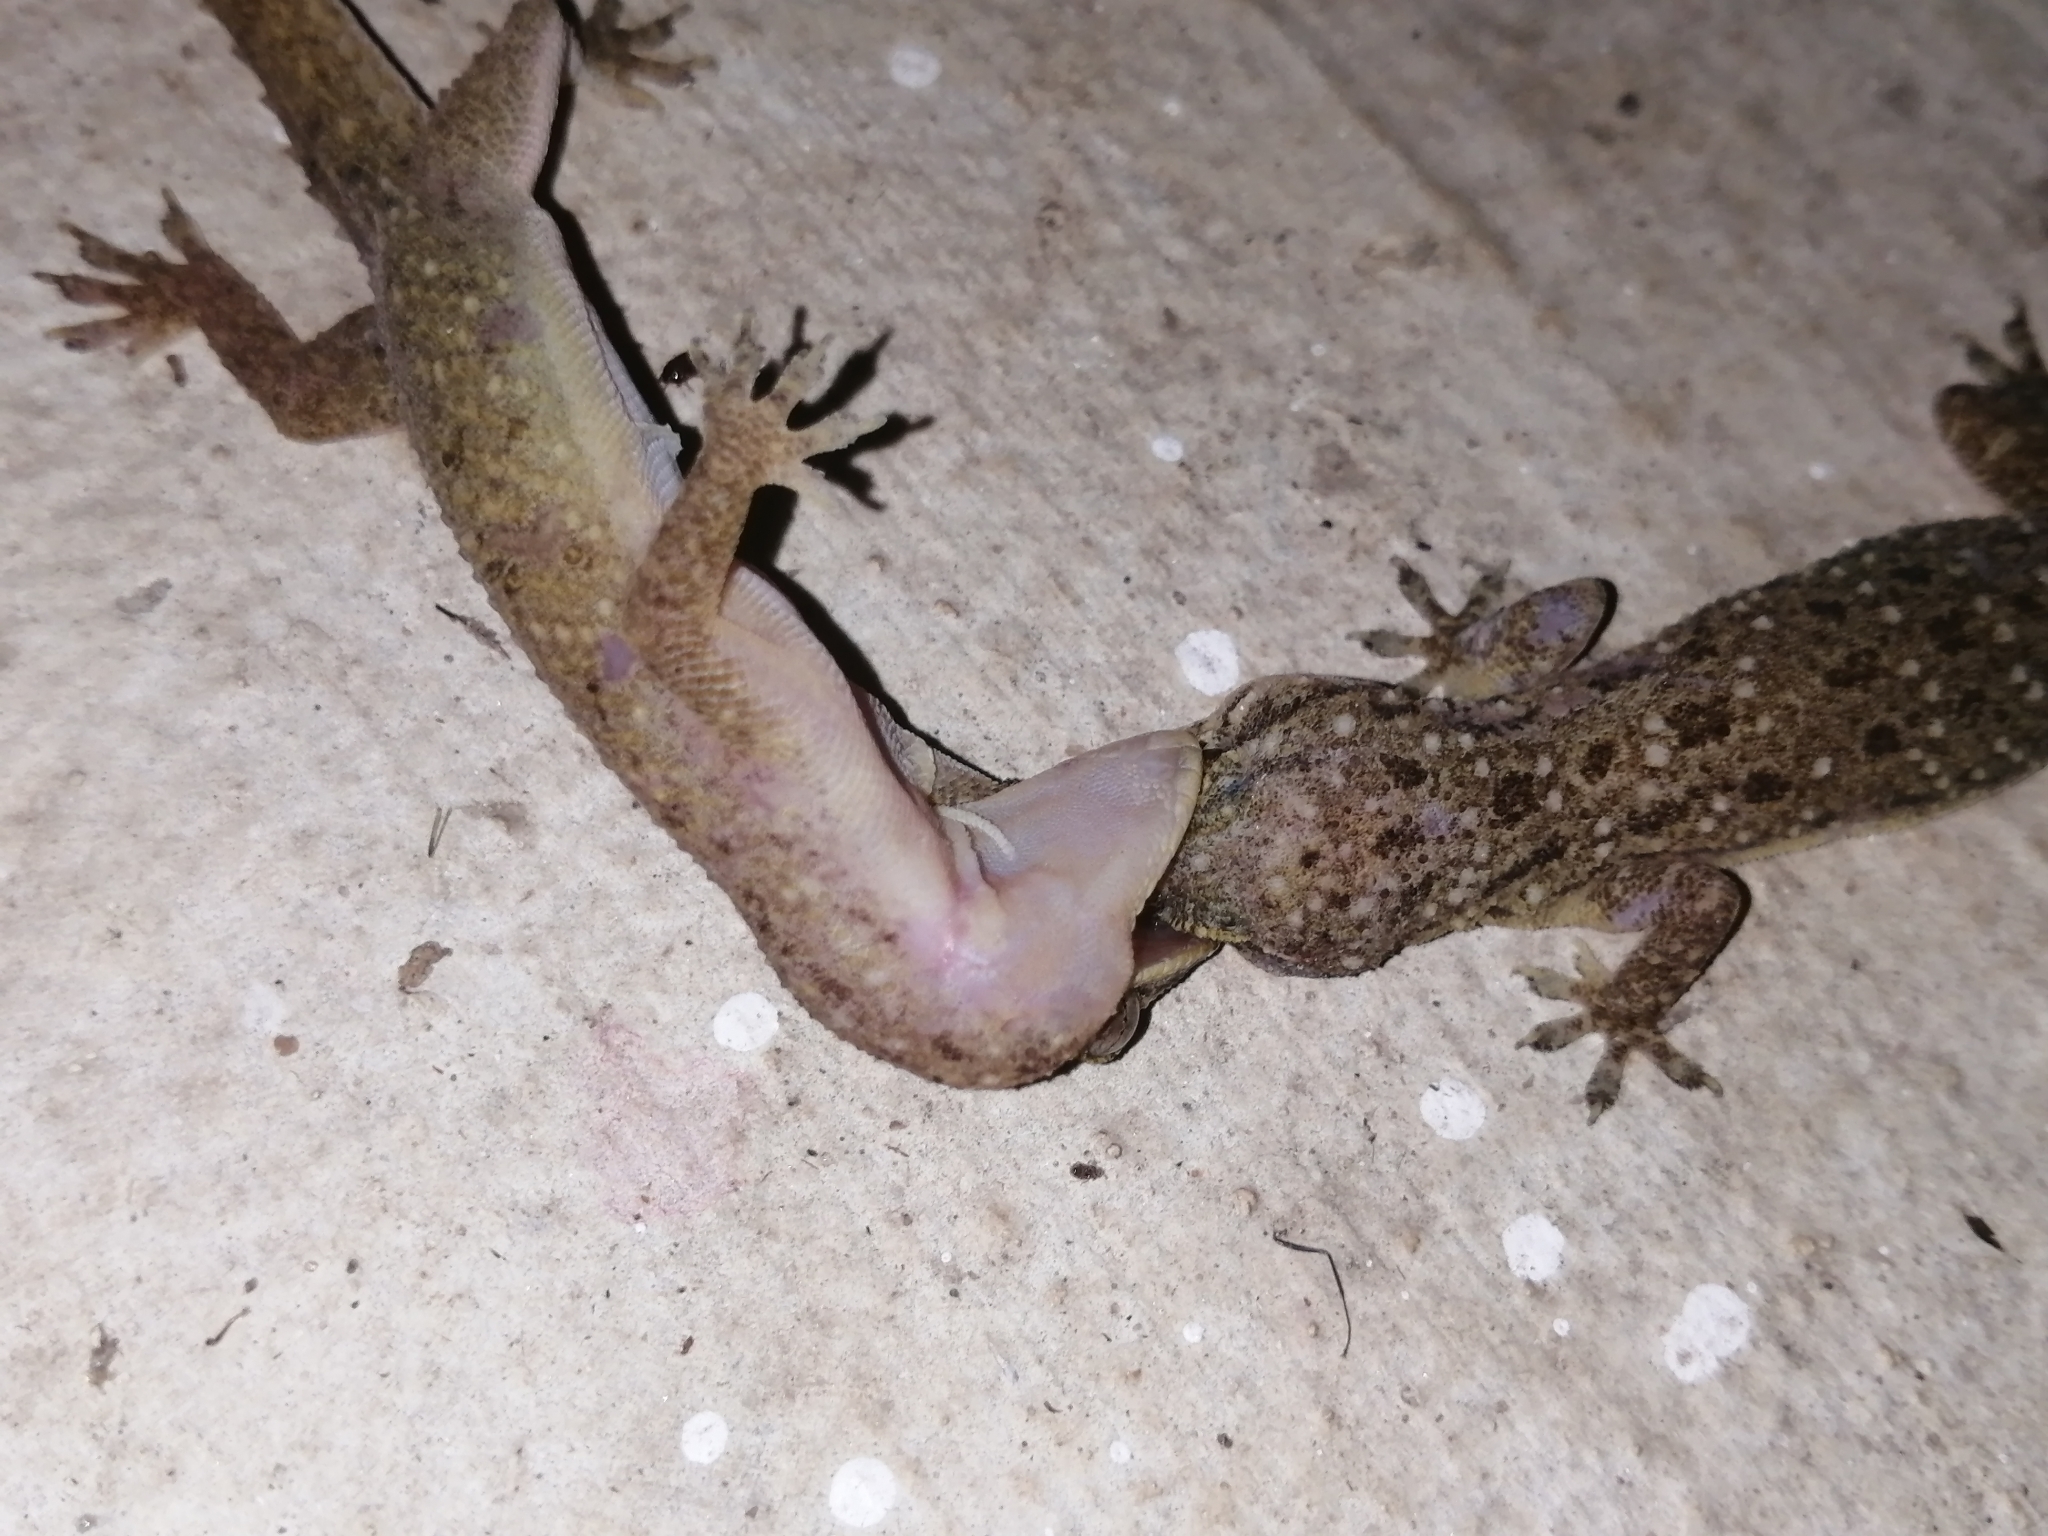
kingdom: Animalia
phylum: Chordata
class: Squamata
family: Gekkonidae
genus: Hemidactylus
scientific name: Hemidactylus frenatus
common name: Common house gecko
